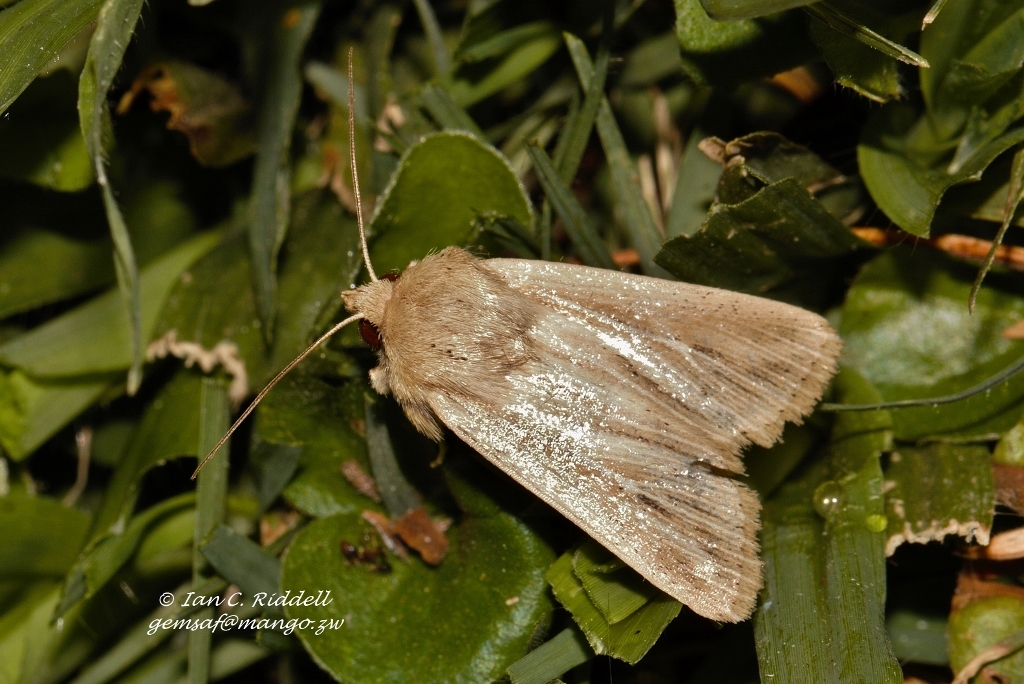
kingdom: Animalia
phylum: Arthropoda
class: Insecta
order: Lepidoptera
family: Noctuidae
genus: Vietteania
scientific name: Vietteania torrentium
